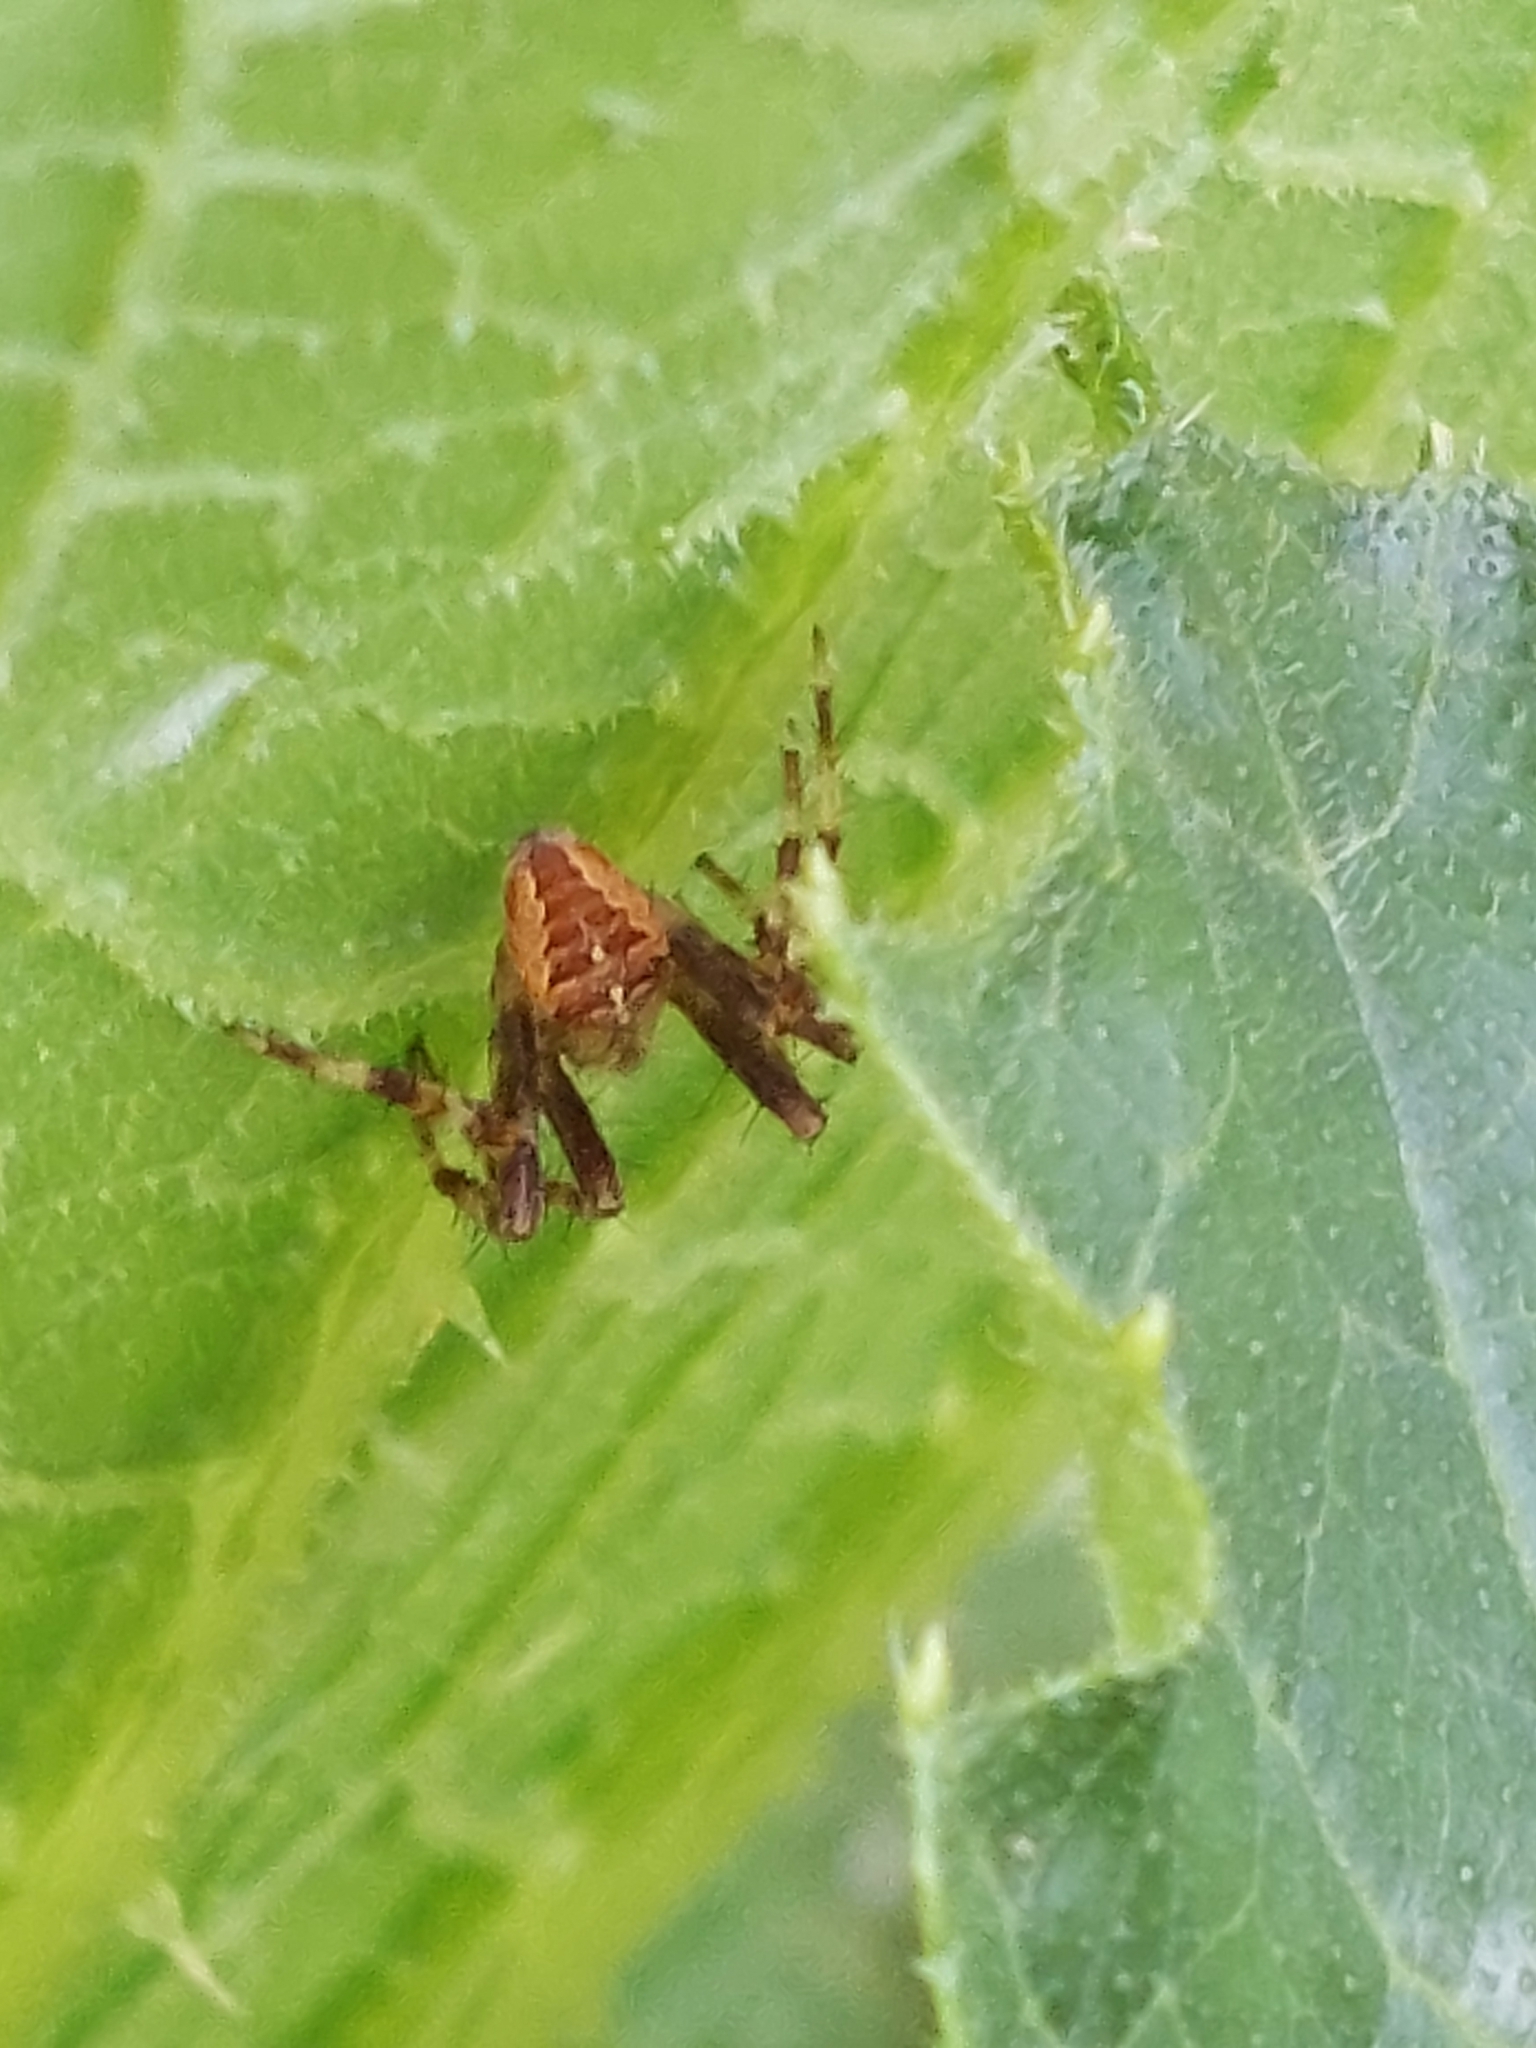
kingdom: Animalia
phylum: Arthropoda
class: Arachnida
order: Araneae
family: Araneidae
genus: Araneus
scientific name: Araneus diadematus
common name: Cross orbweaver
